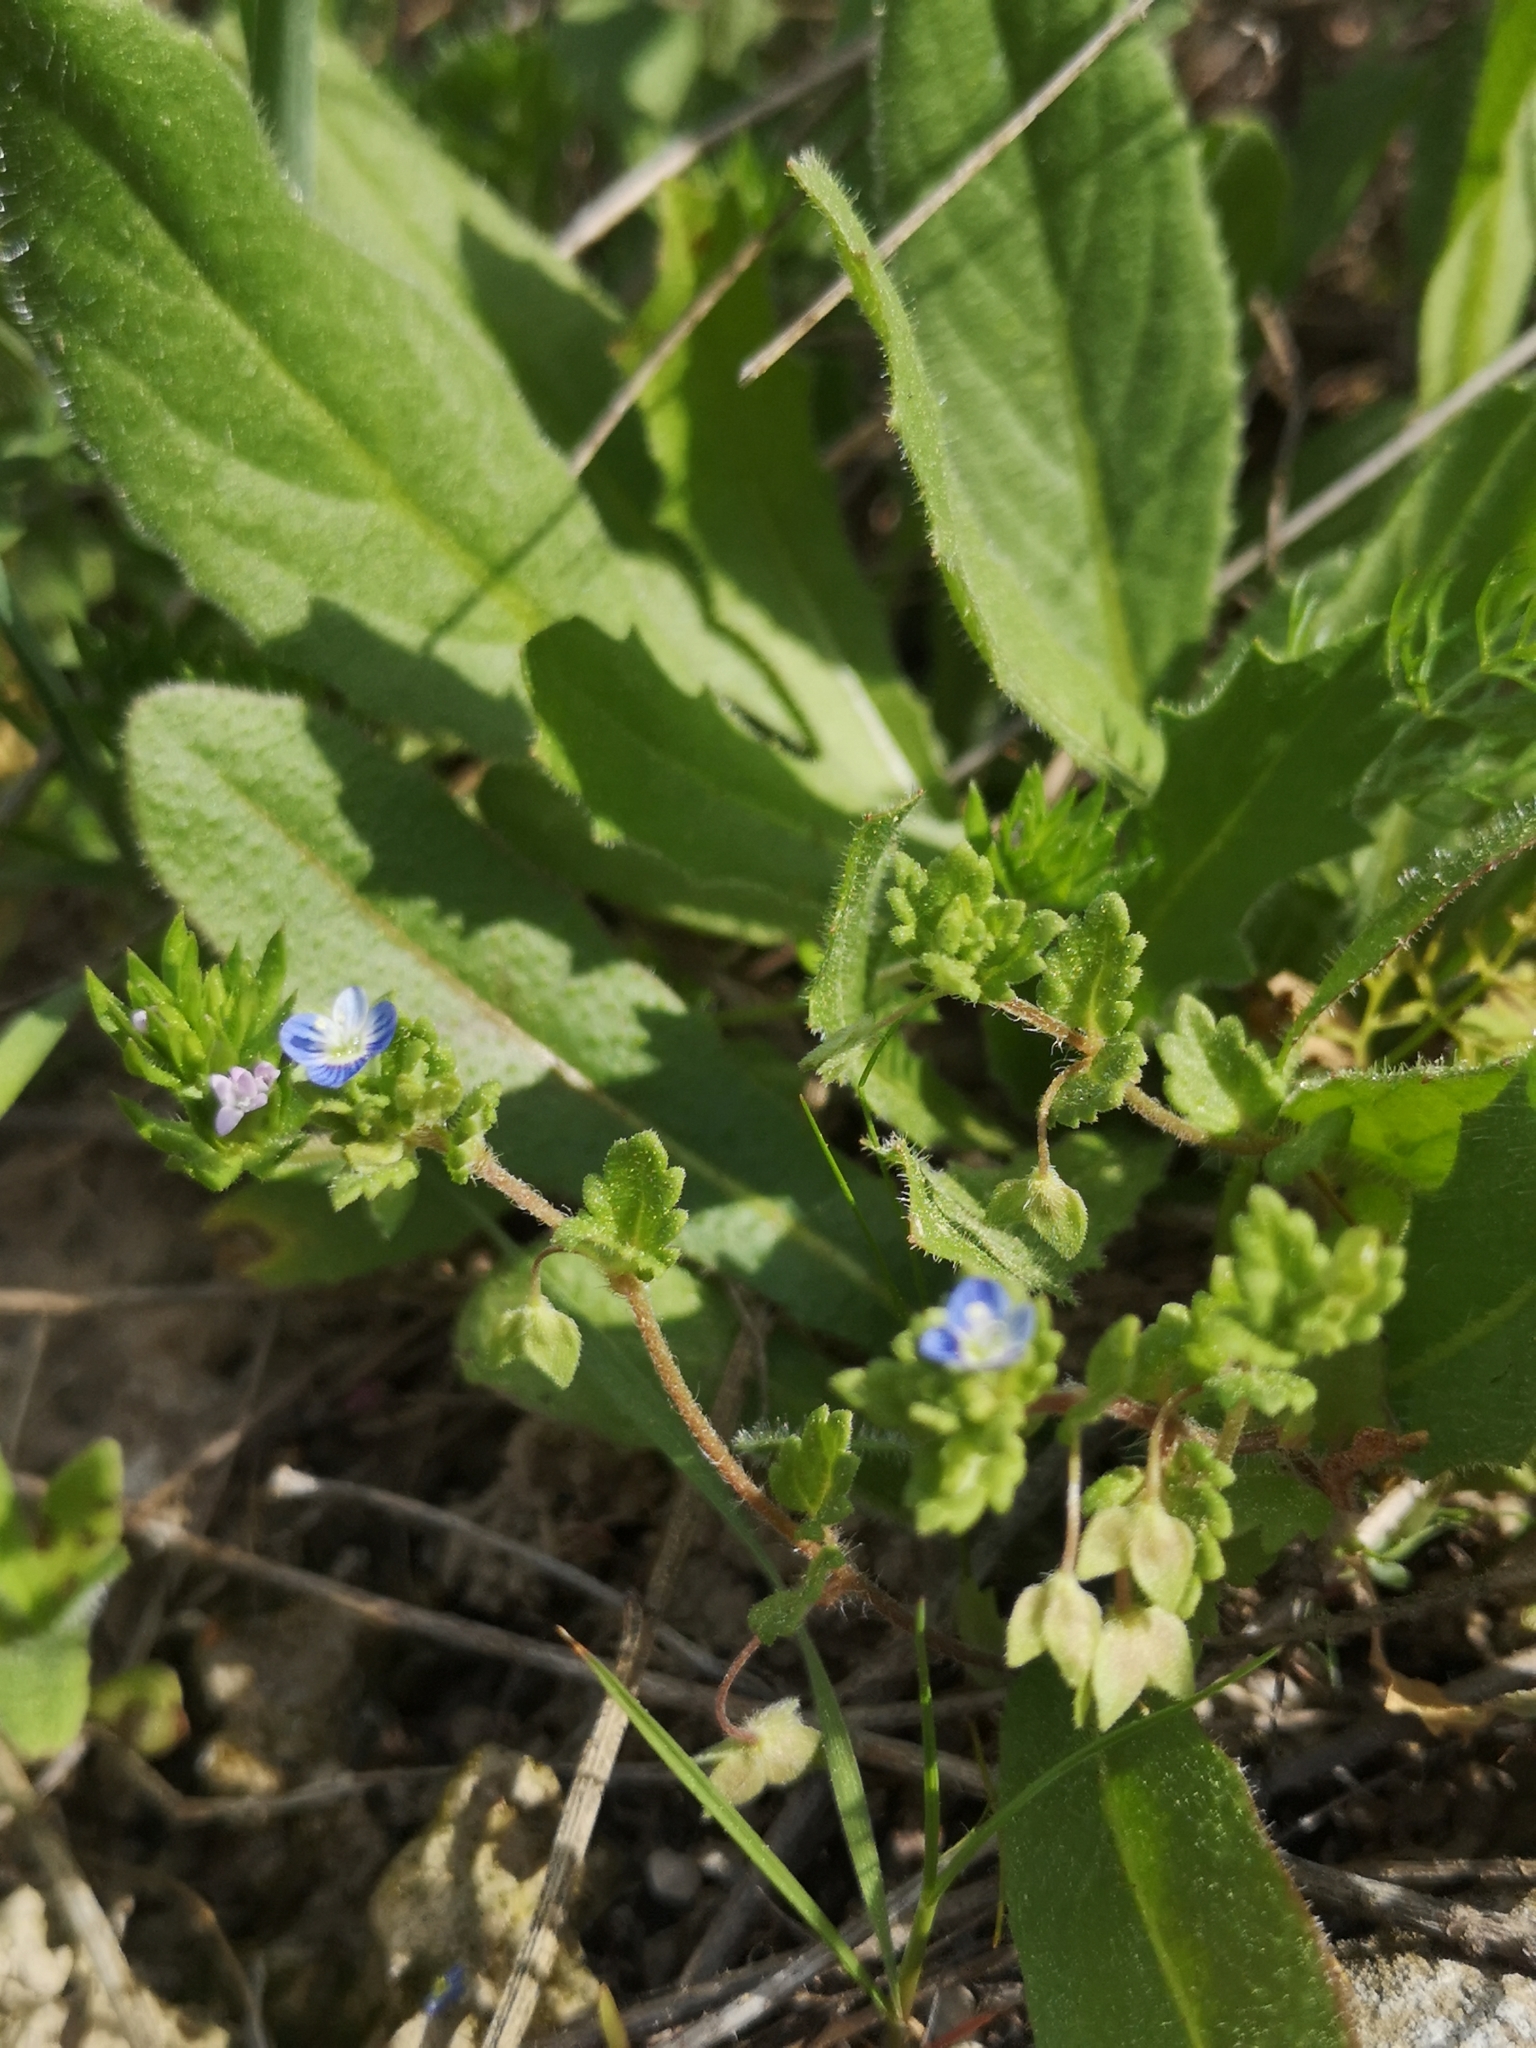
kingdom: Plantae
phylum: Tracheophyta
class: Magnoliopsida
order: Lamiales
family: Plantaginaceae
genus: Veronica
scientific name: Veronica polita
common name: Grey field-speedwell
